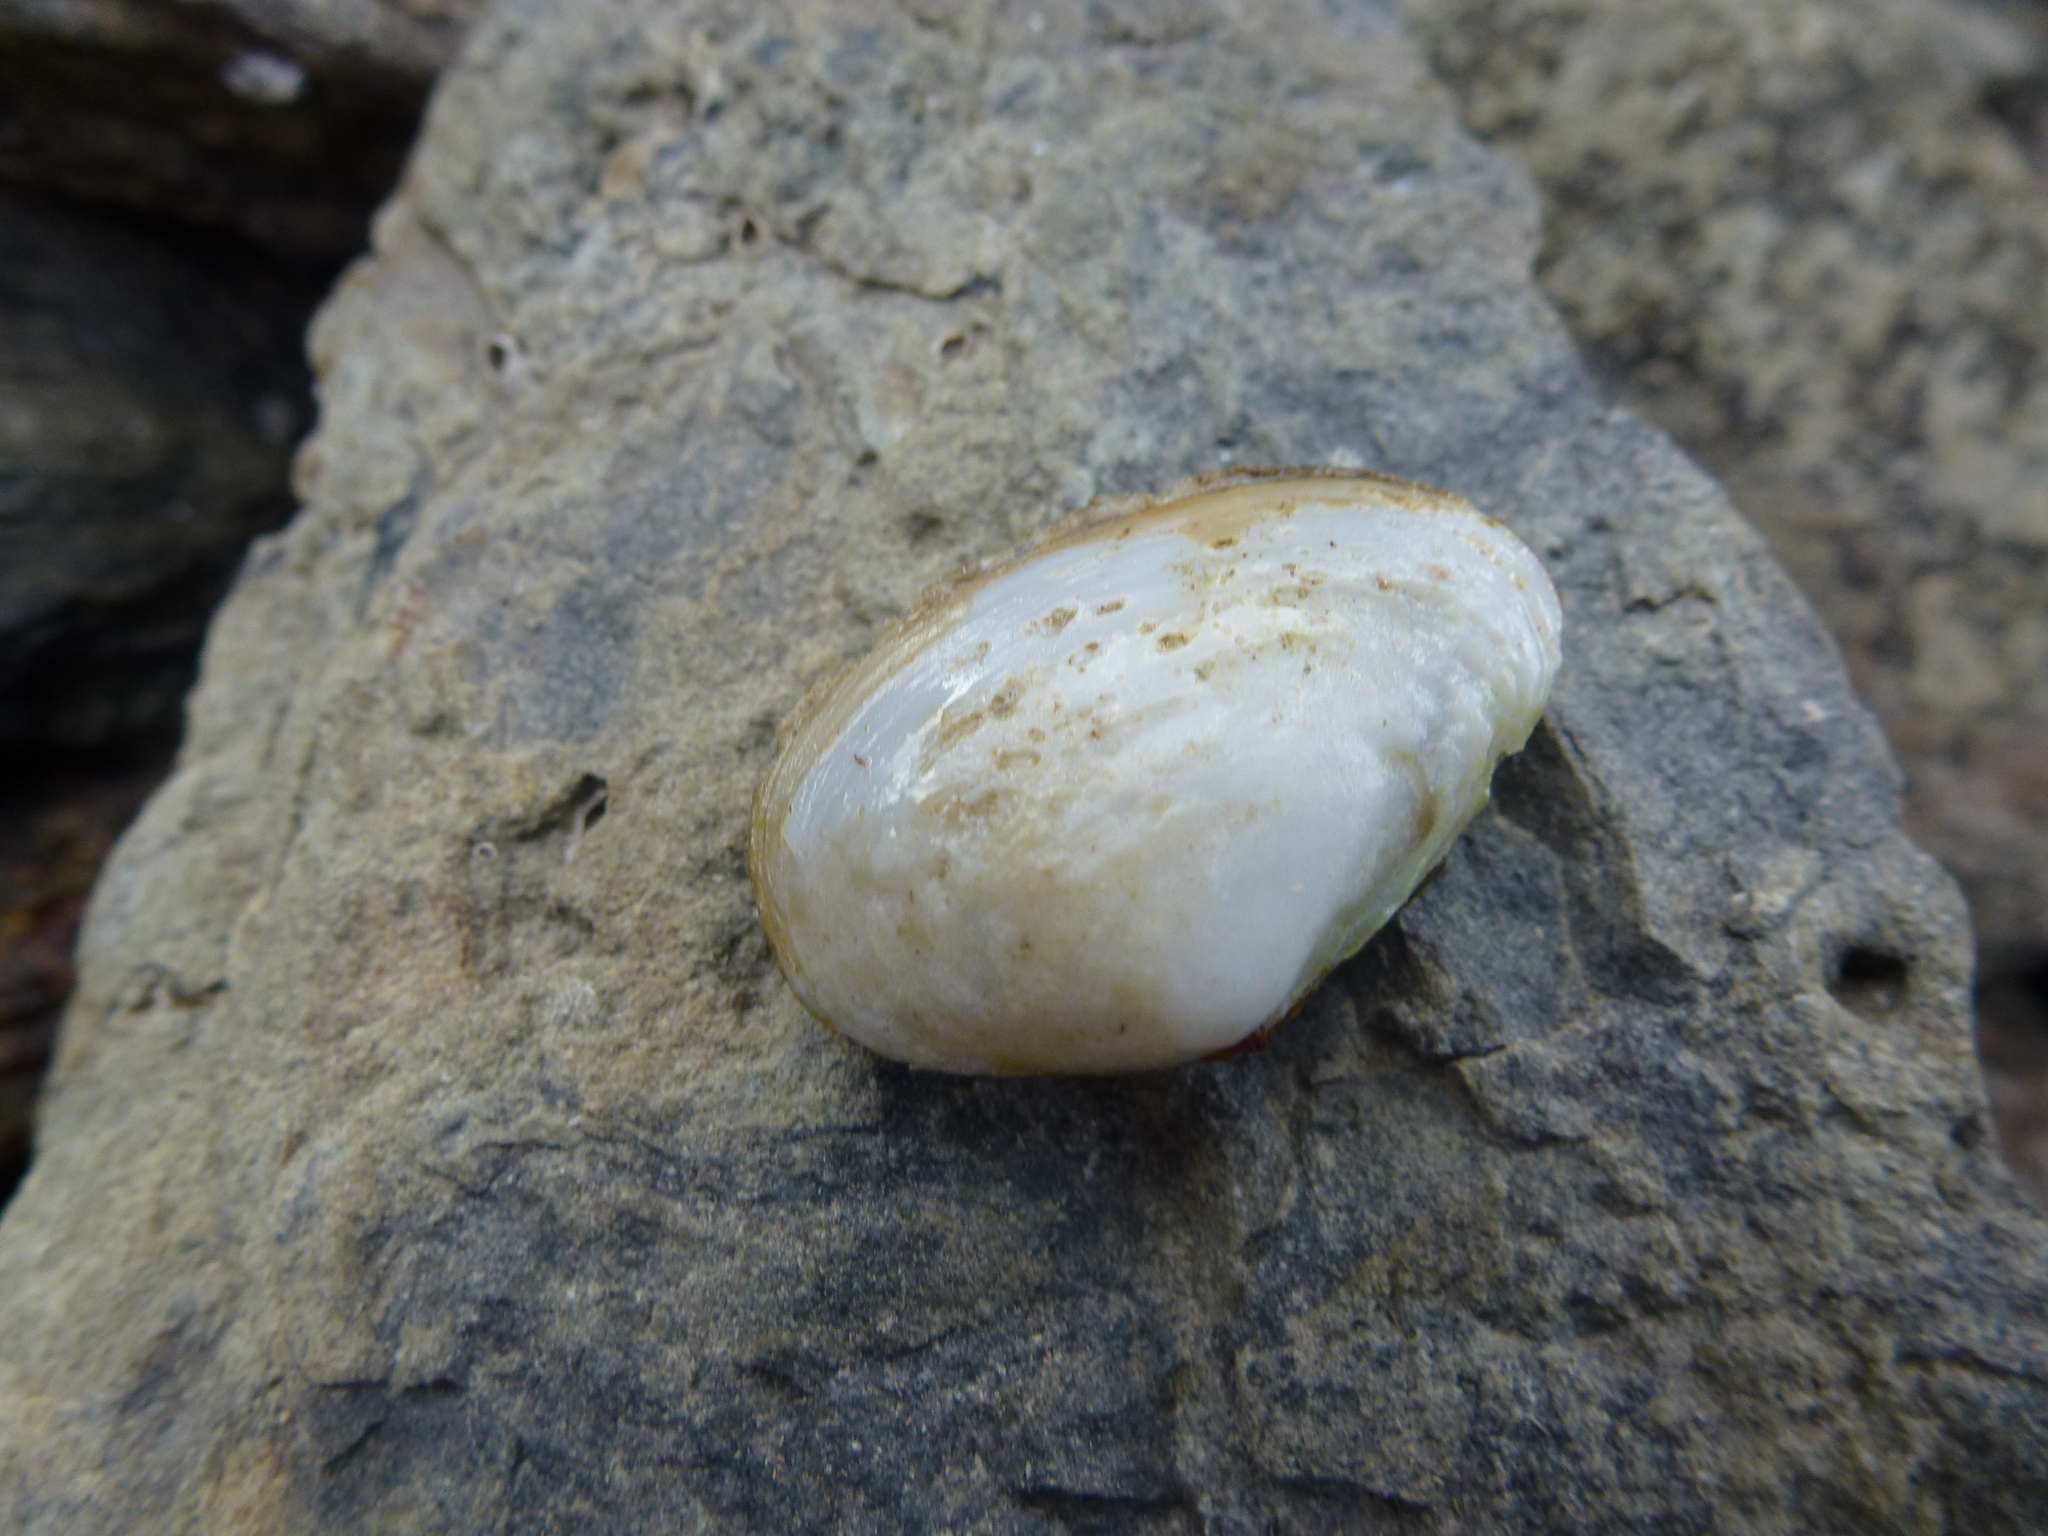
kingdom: Animalia
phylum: Mollusca
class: Bivalvia
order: Venerida
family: Mesodesmatidae
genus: Paphies
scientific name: Paphies australis
